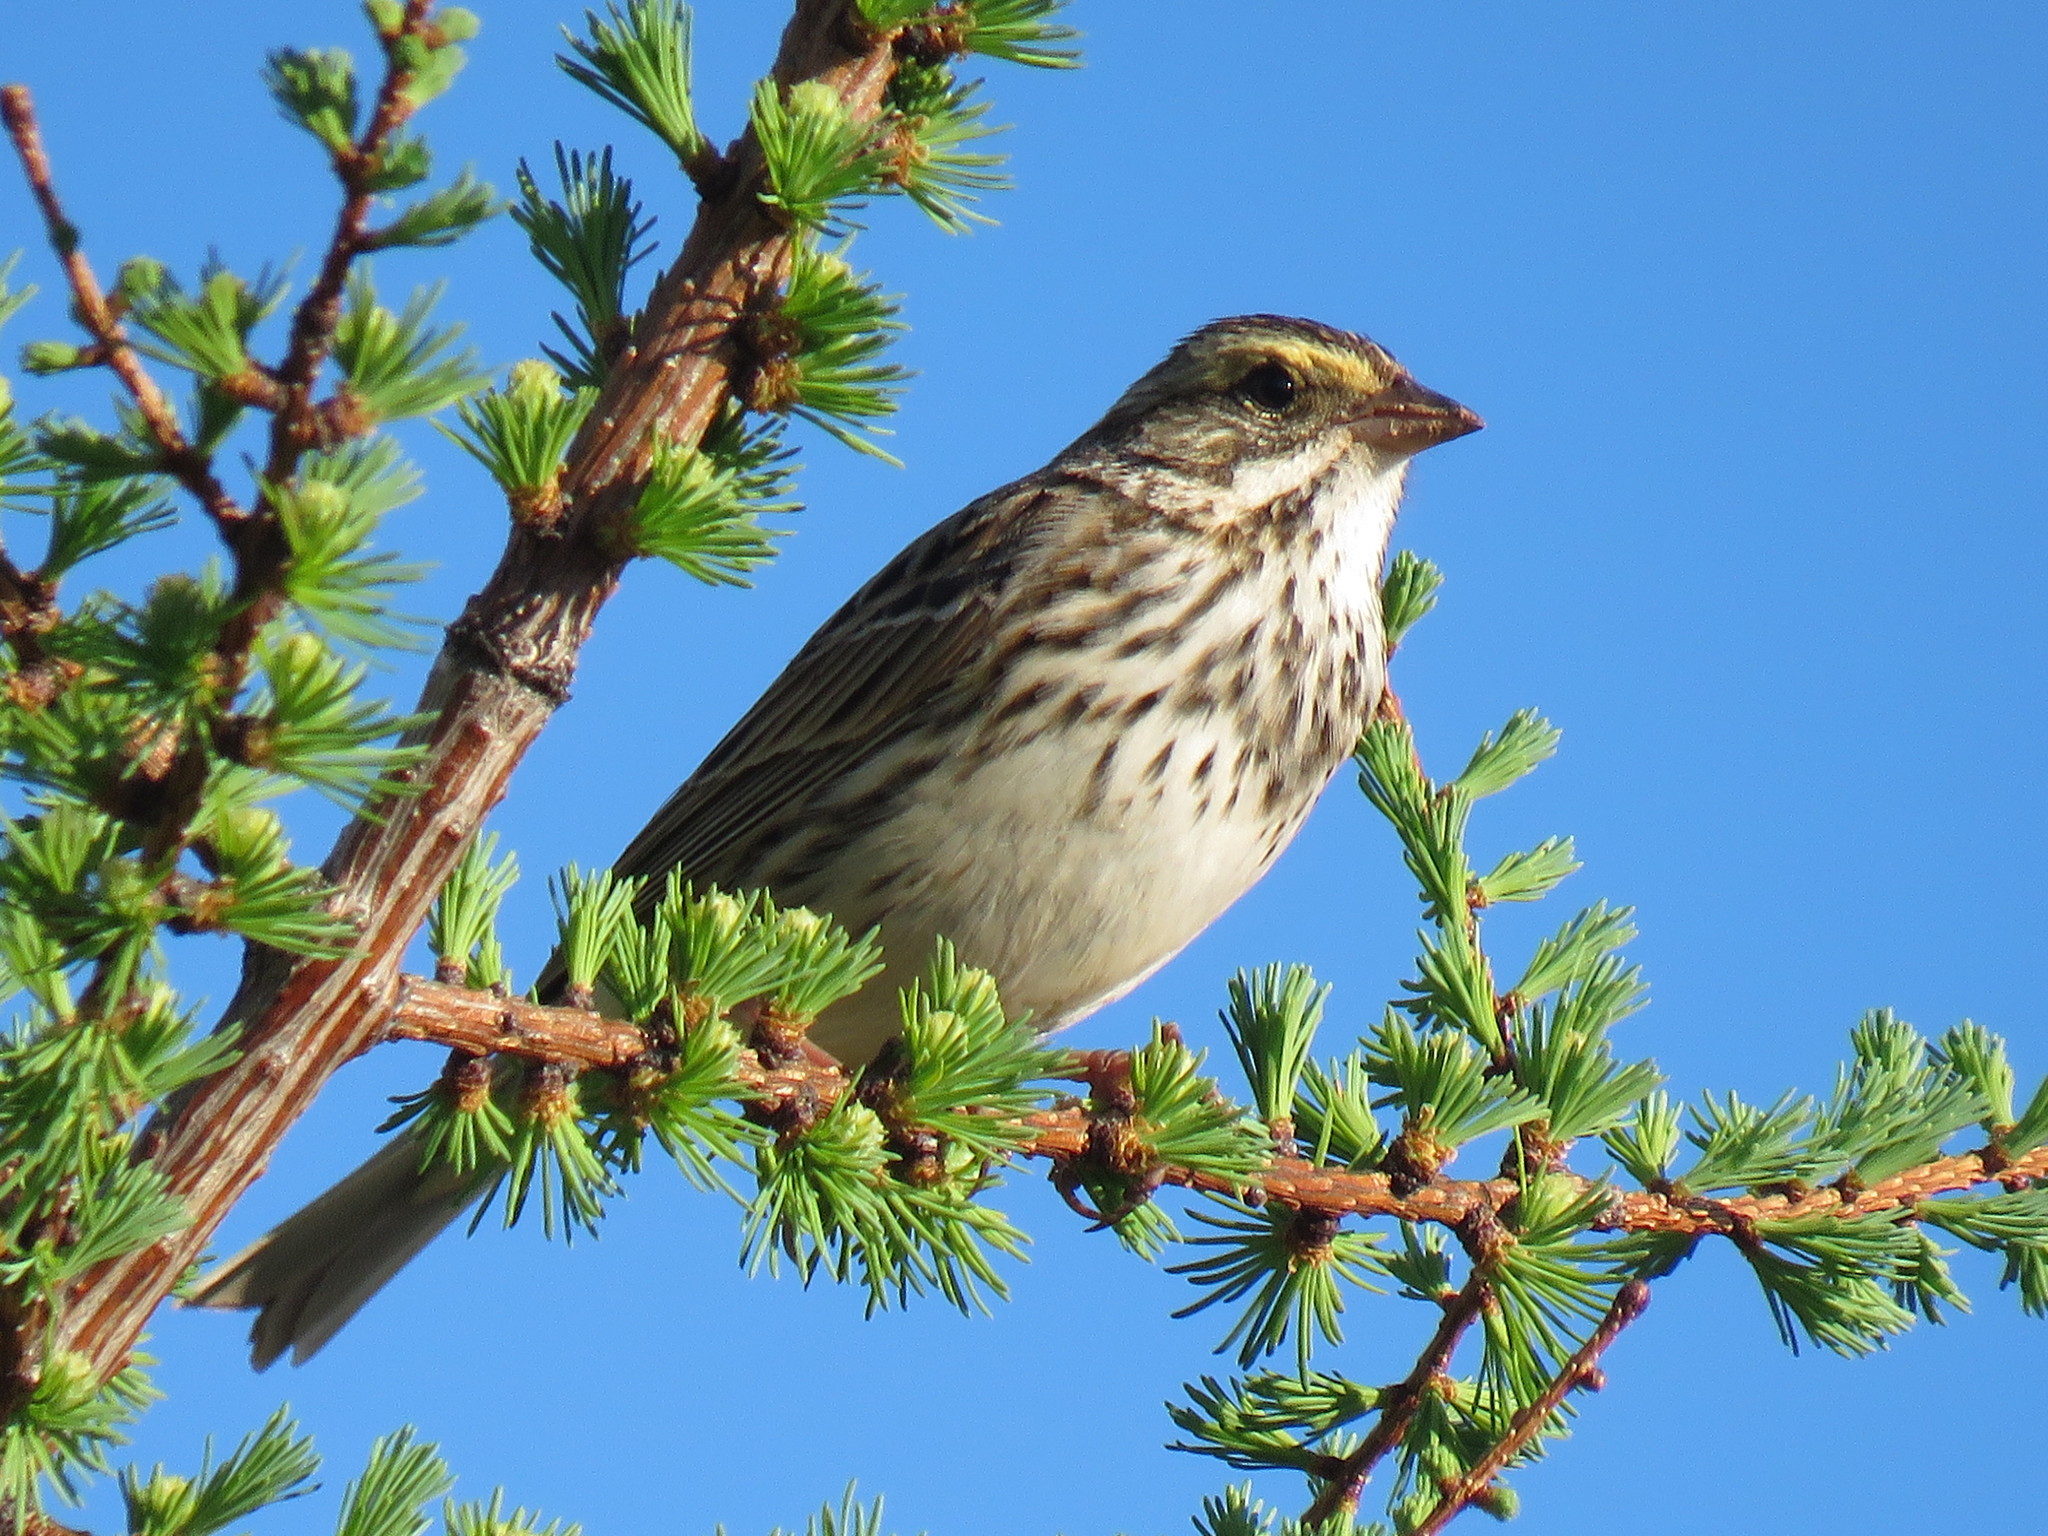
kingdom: Animalia
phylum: Chordata
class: Aves
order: Passeriformes
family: Passerellidae
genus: Passerculus
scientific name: Passerculus sandwichensis
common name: Savannah sparrow
